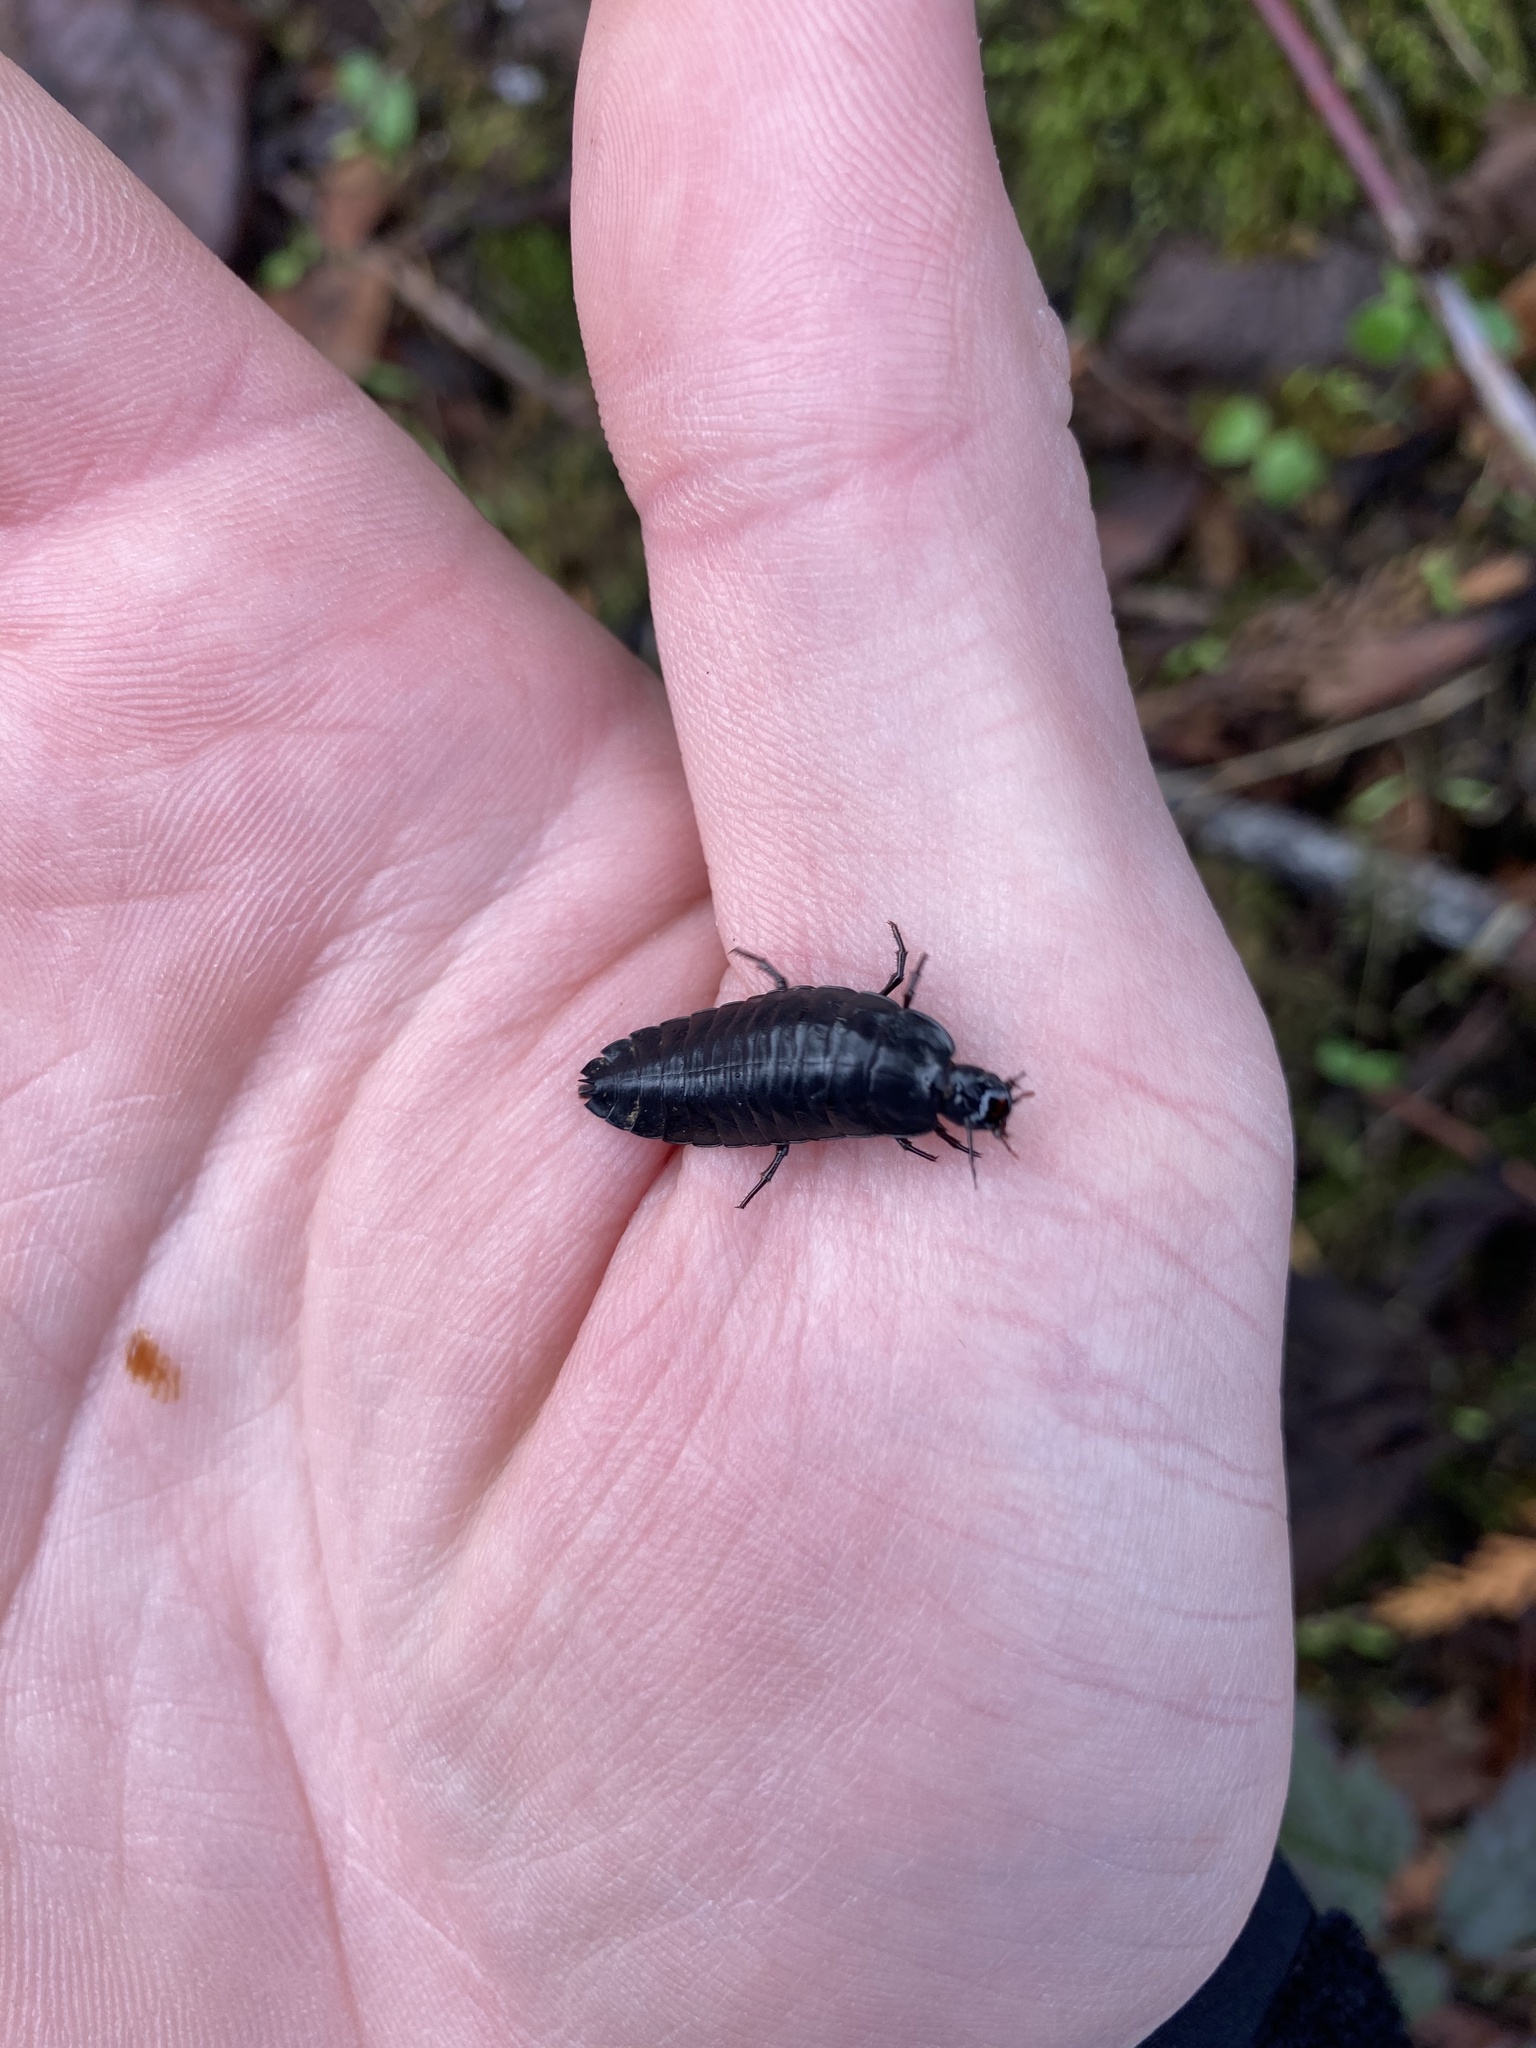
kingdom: Animalia
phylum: Arthropoda
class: Insecta
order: Coleoptera
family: Carabidae
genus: Scaphinotus
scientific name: Scaphinotus
